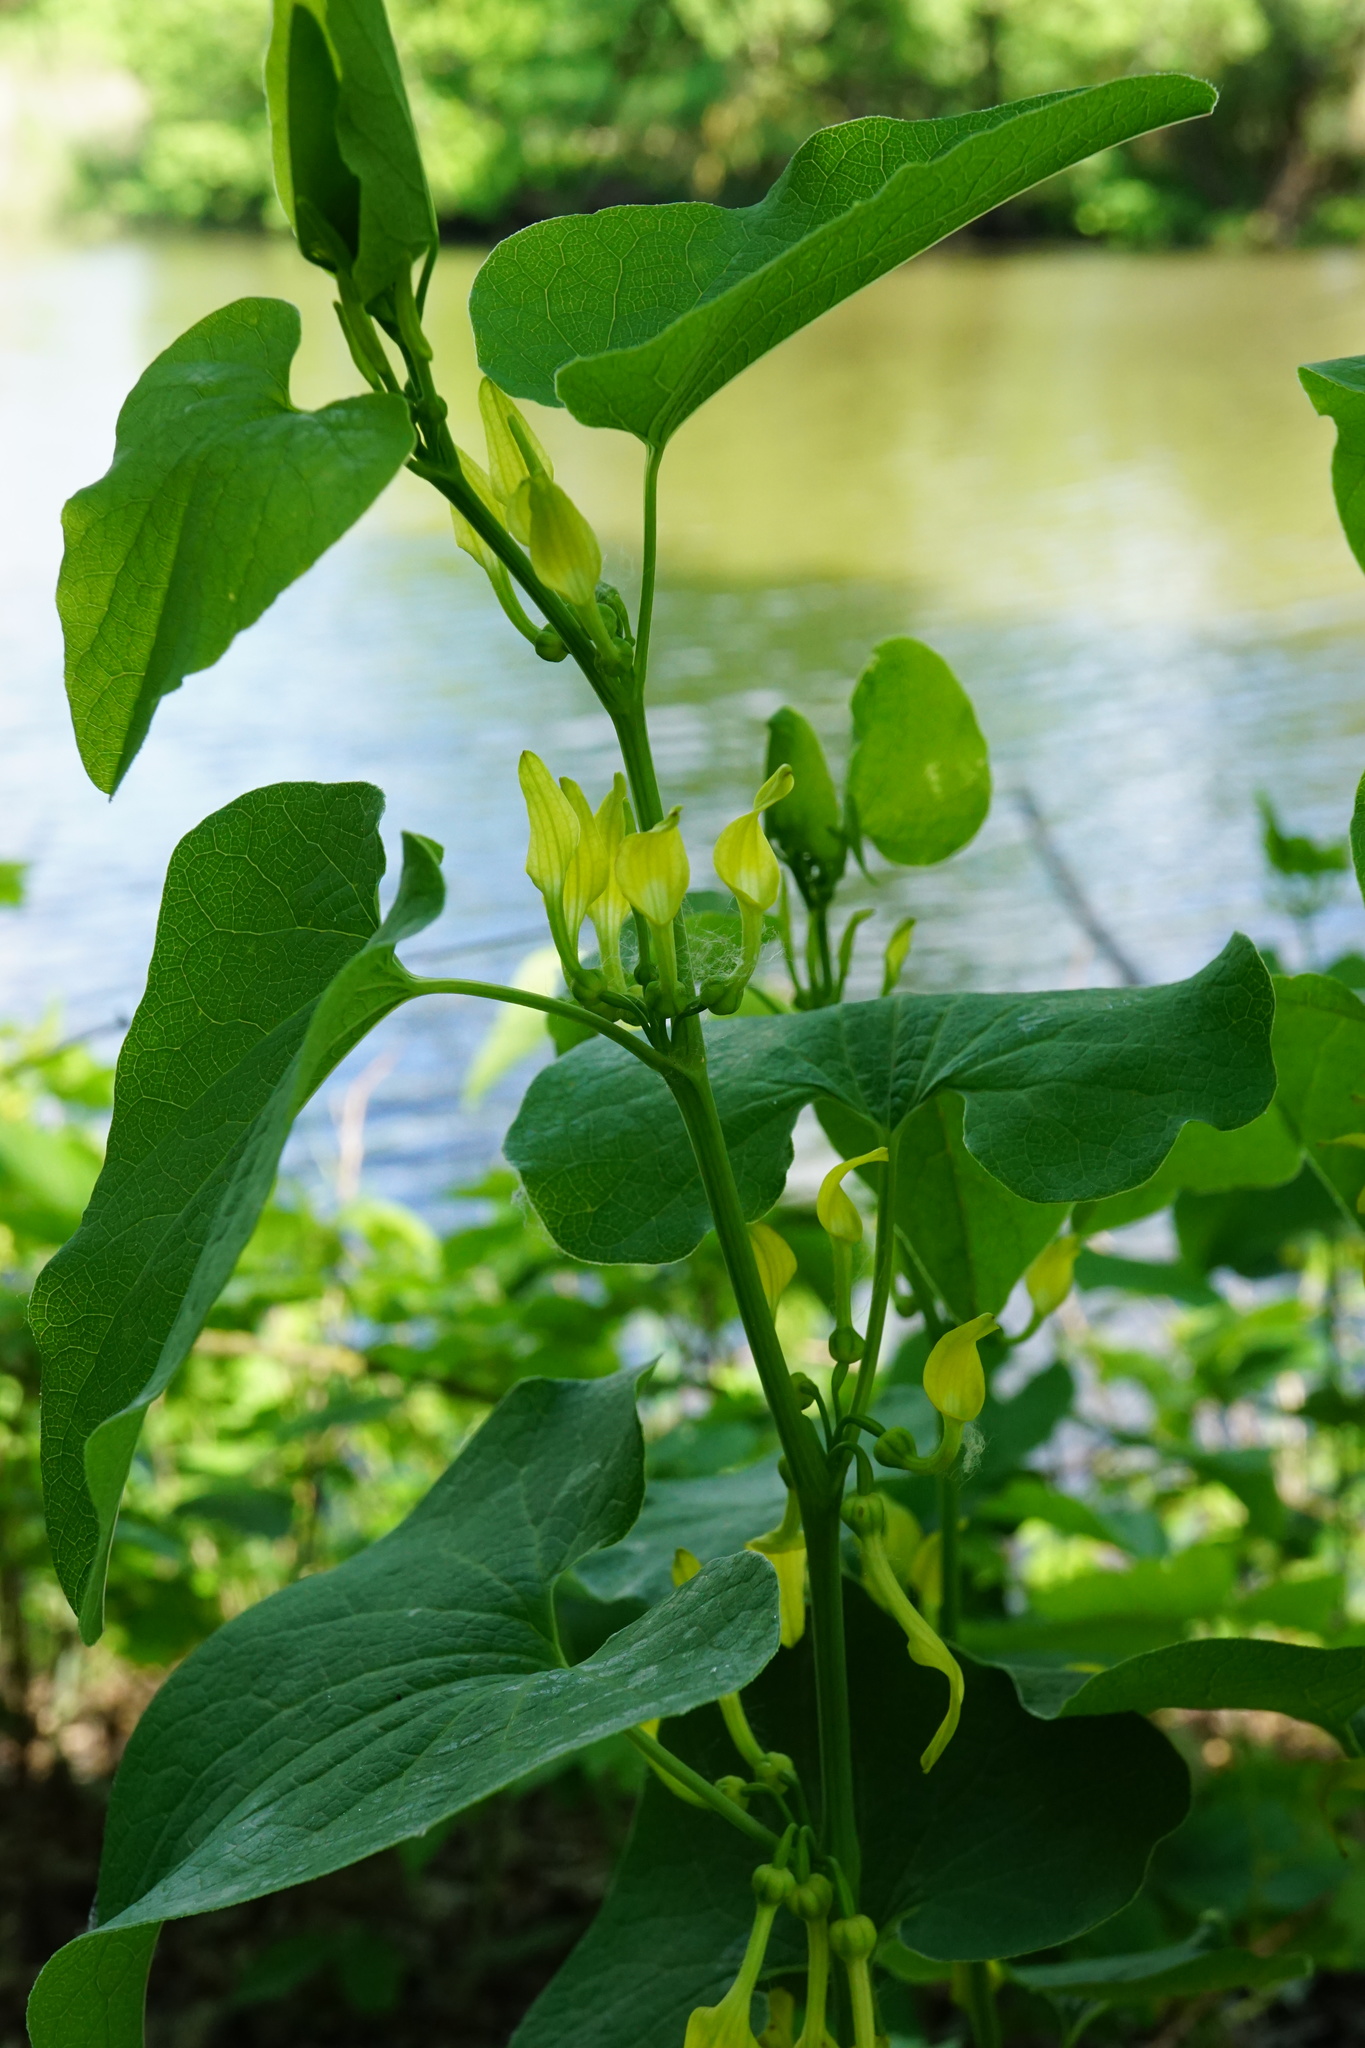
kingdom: Plantae
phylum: Tracheophyta
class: Magnoliopsida
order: Piperales
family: Aristolochiaceae
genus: Aristolochia
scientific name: Aristolochia clematitis
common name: Birthwort
